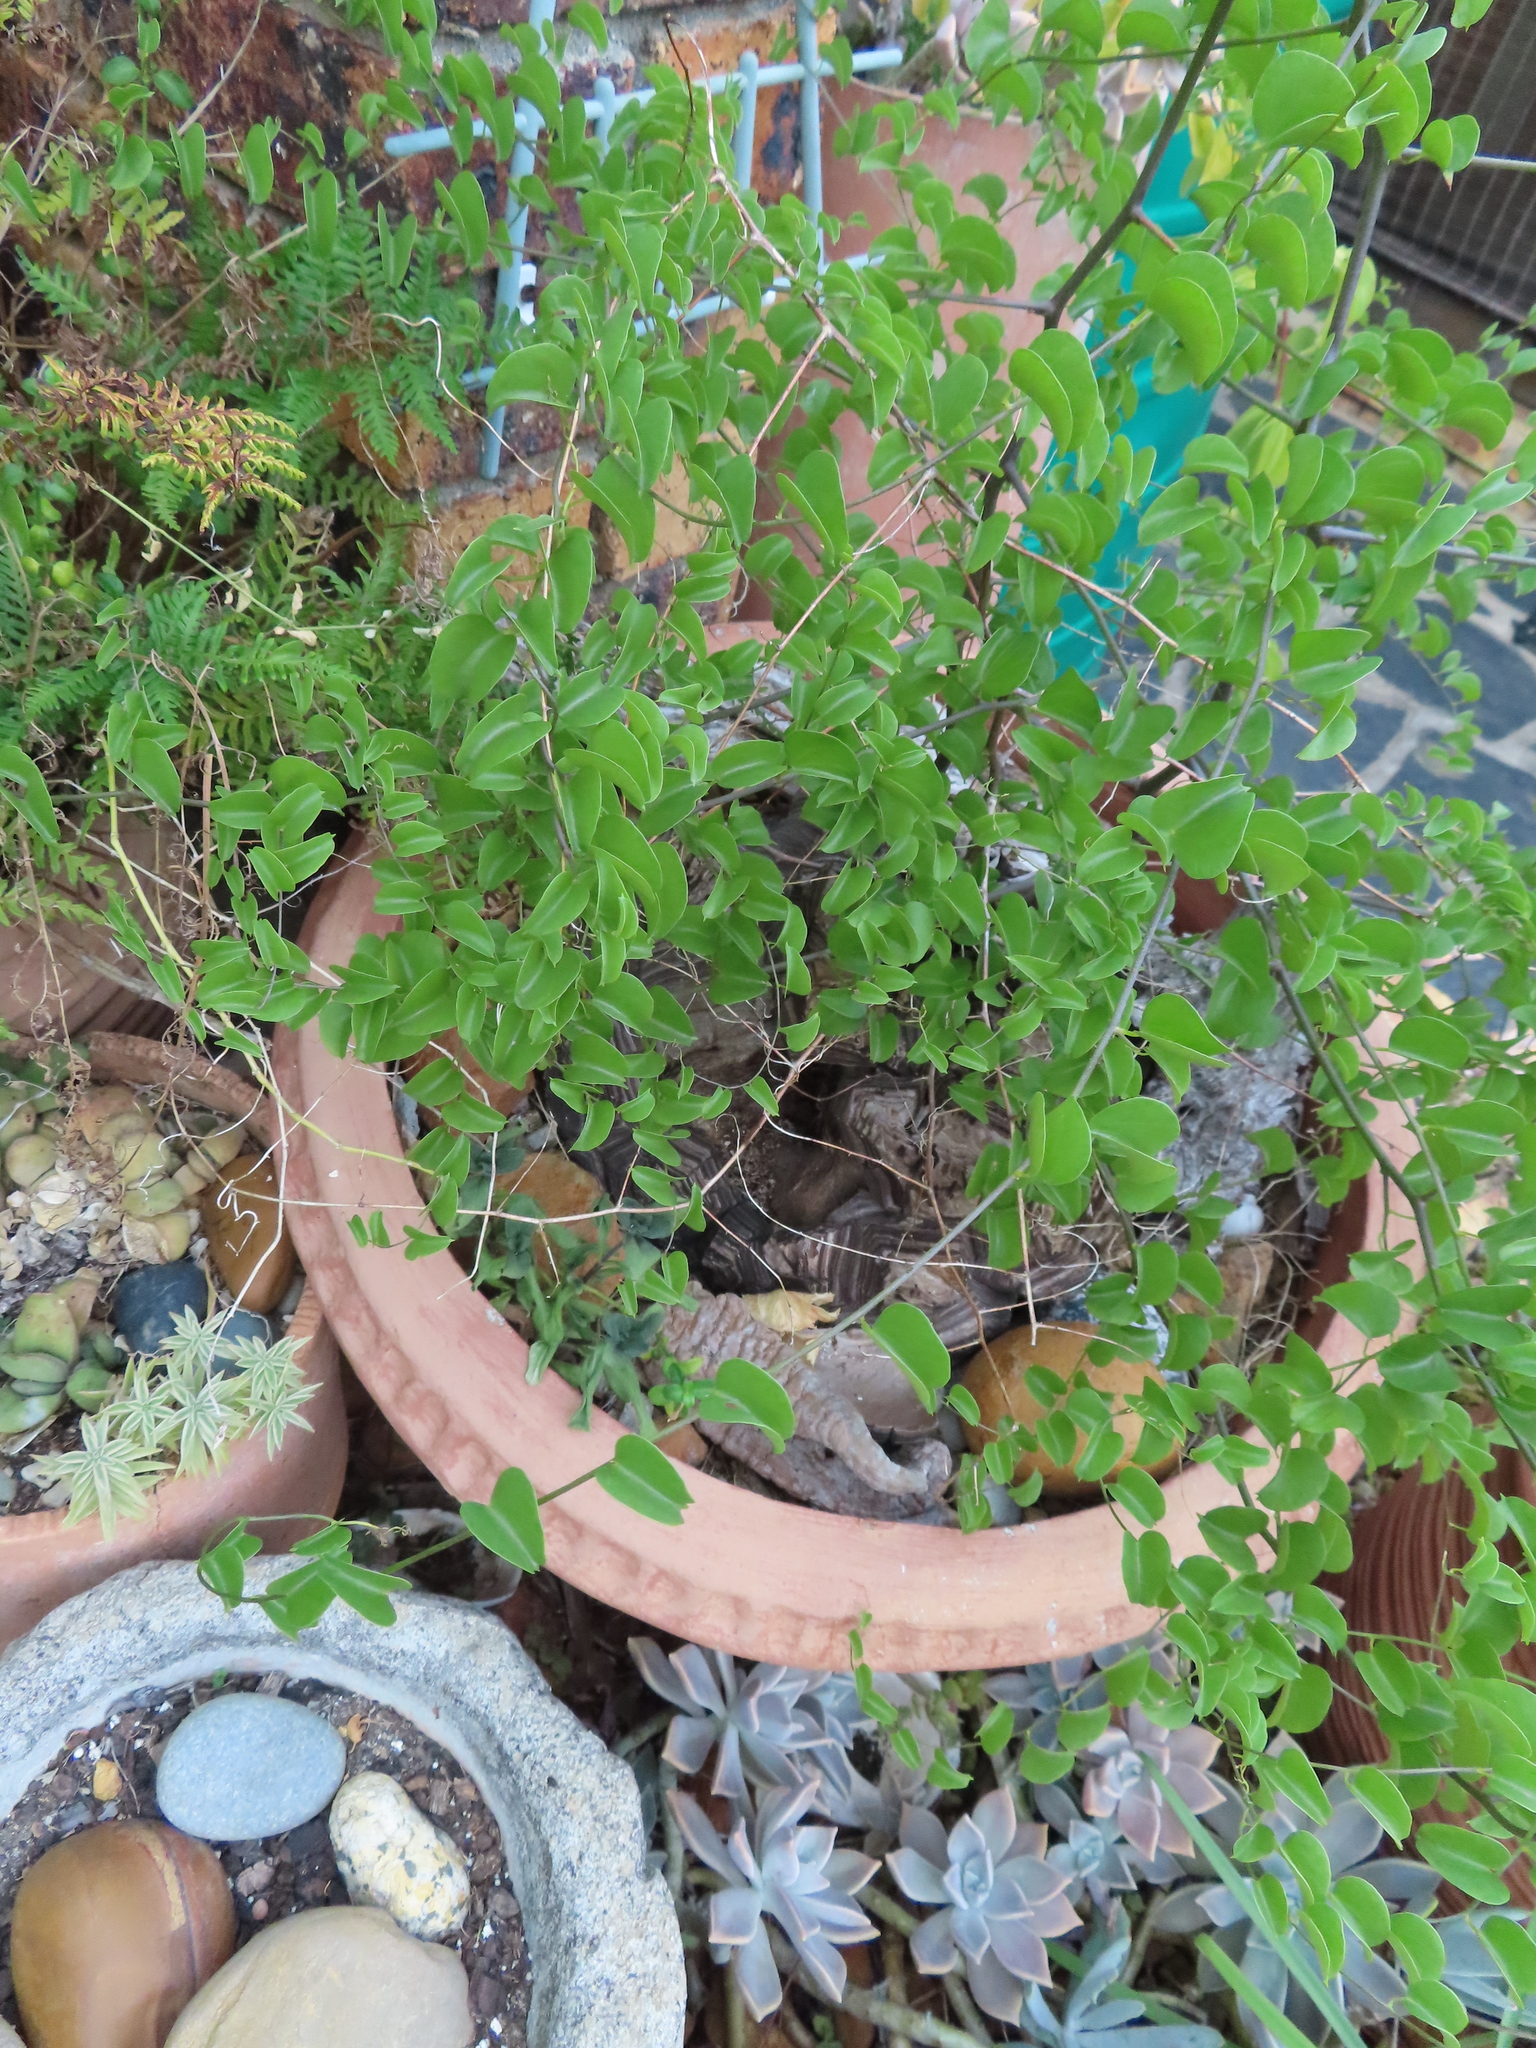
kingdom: Plantae
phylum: Tracheophyta
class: Liliopsida
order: Dioscoreales
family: Dioscoreaceae
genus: Dioscorea
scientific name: Dioscorea elephantipes
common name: Elephant's foot yam
